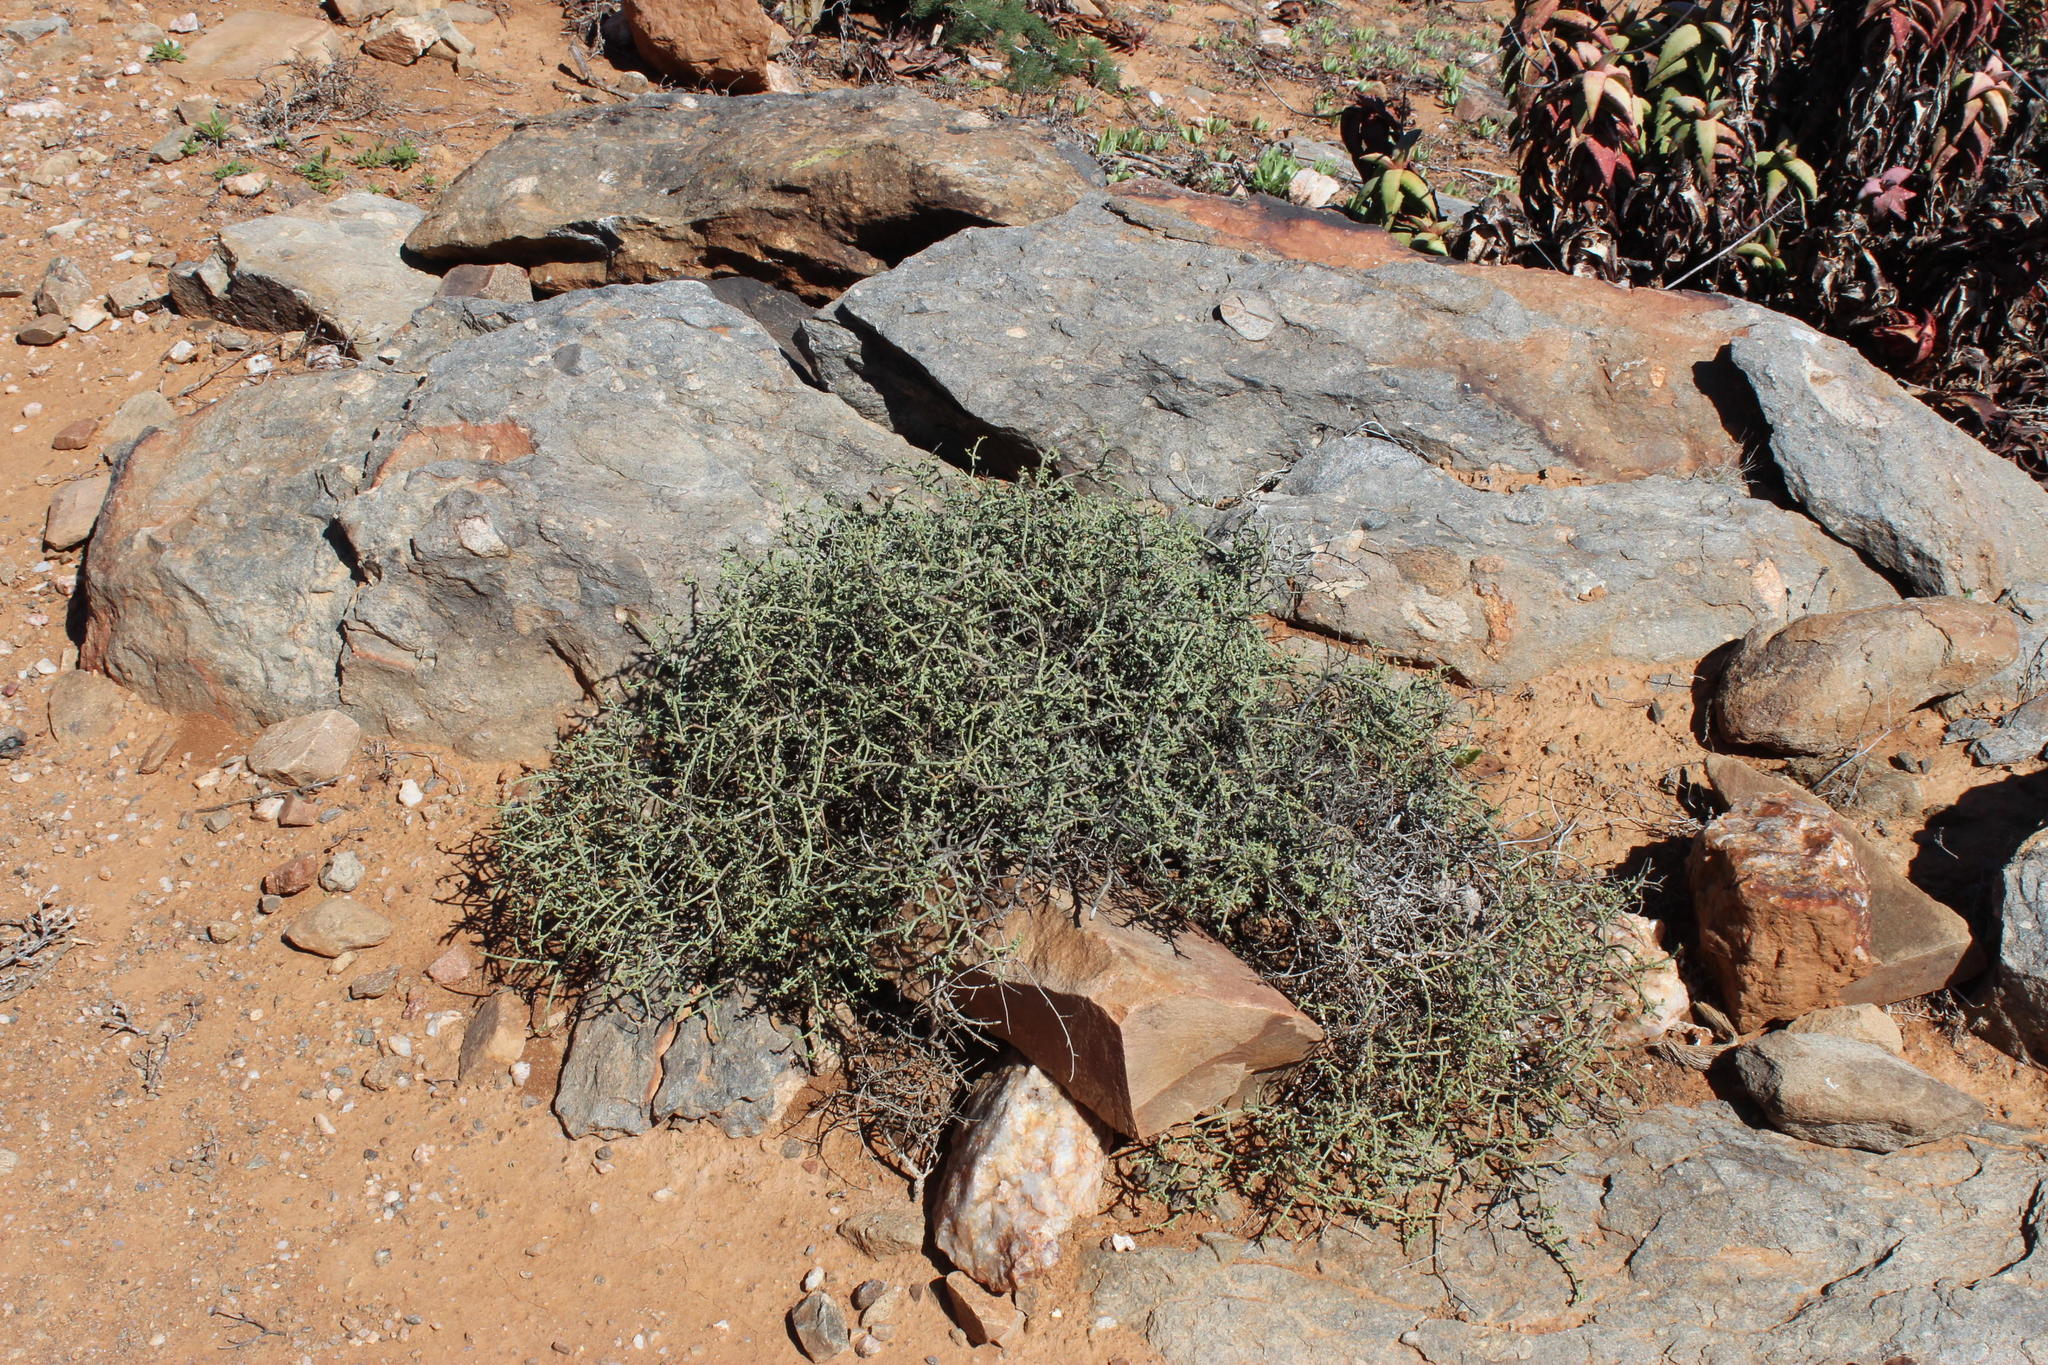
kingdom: Plantae
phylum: Tracheophyta
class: Magnoliopsida
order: Zygophyllales
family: Zygophyllaceae
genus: Tetraena
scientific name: Tetraena retrofracta
